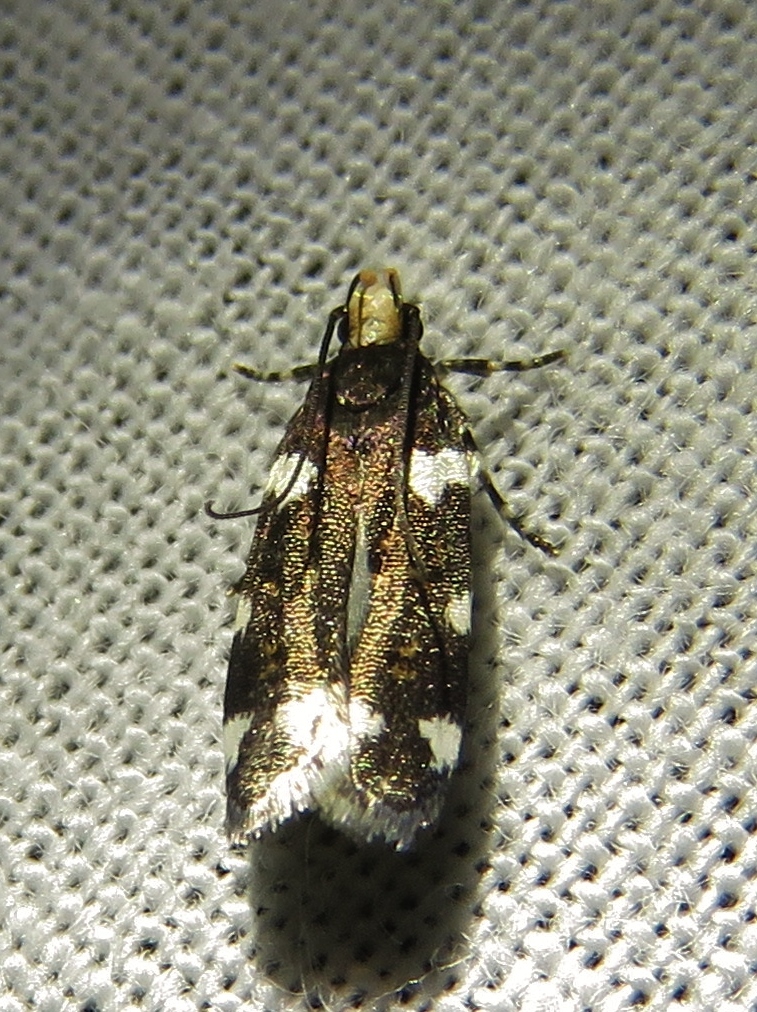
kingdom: Animalia
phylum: Arthropoda
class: Insecta
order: Lepidoptera
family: Gelechiidae
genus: Fascista
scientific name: Fascista cercerisella
